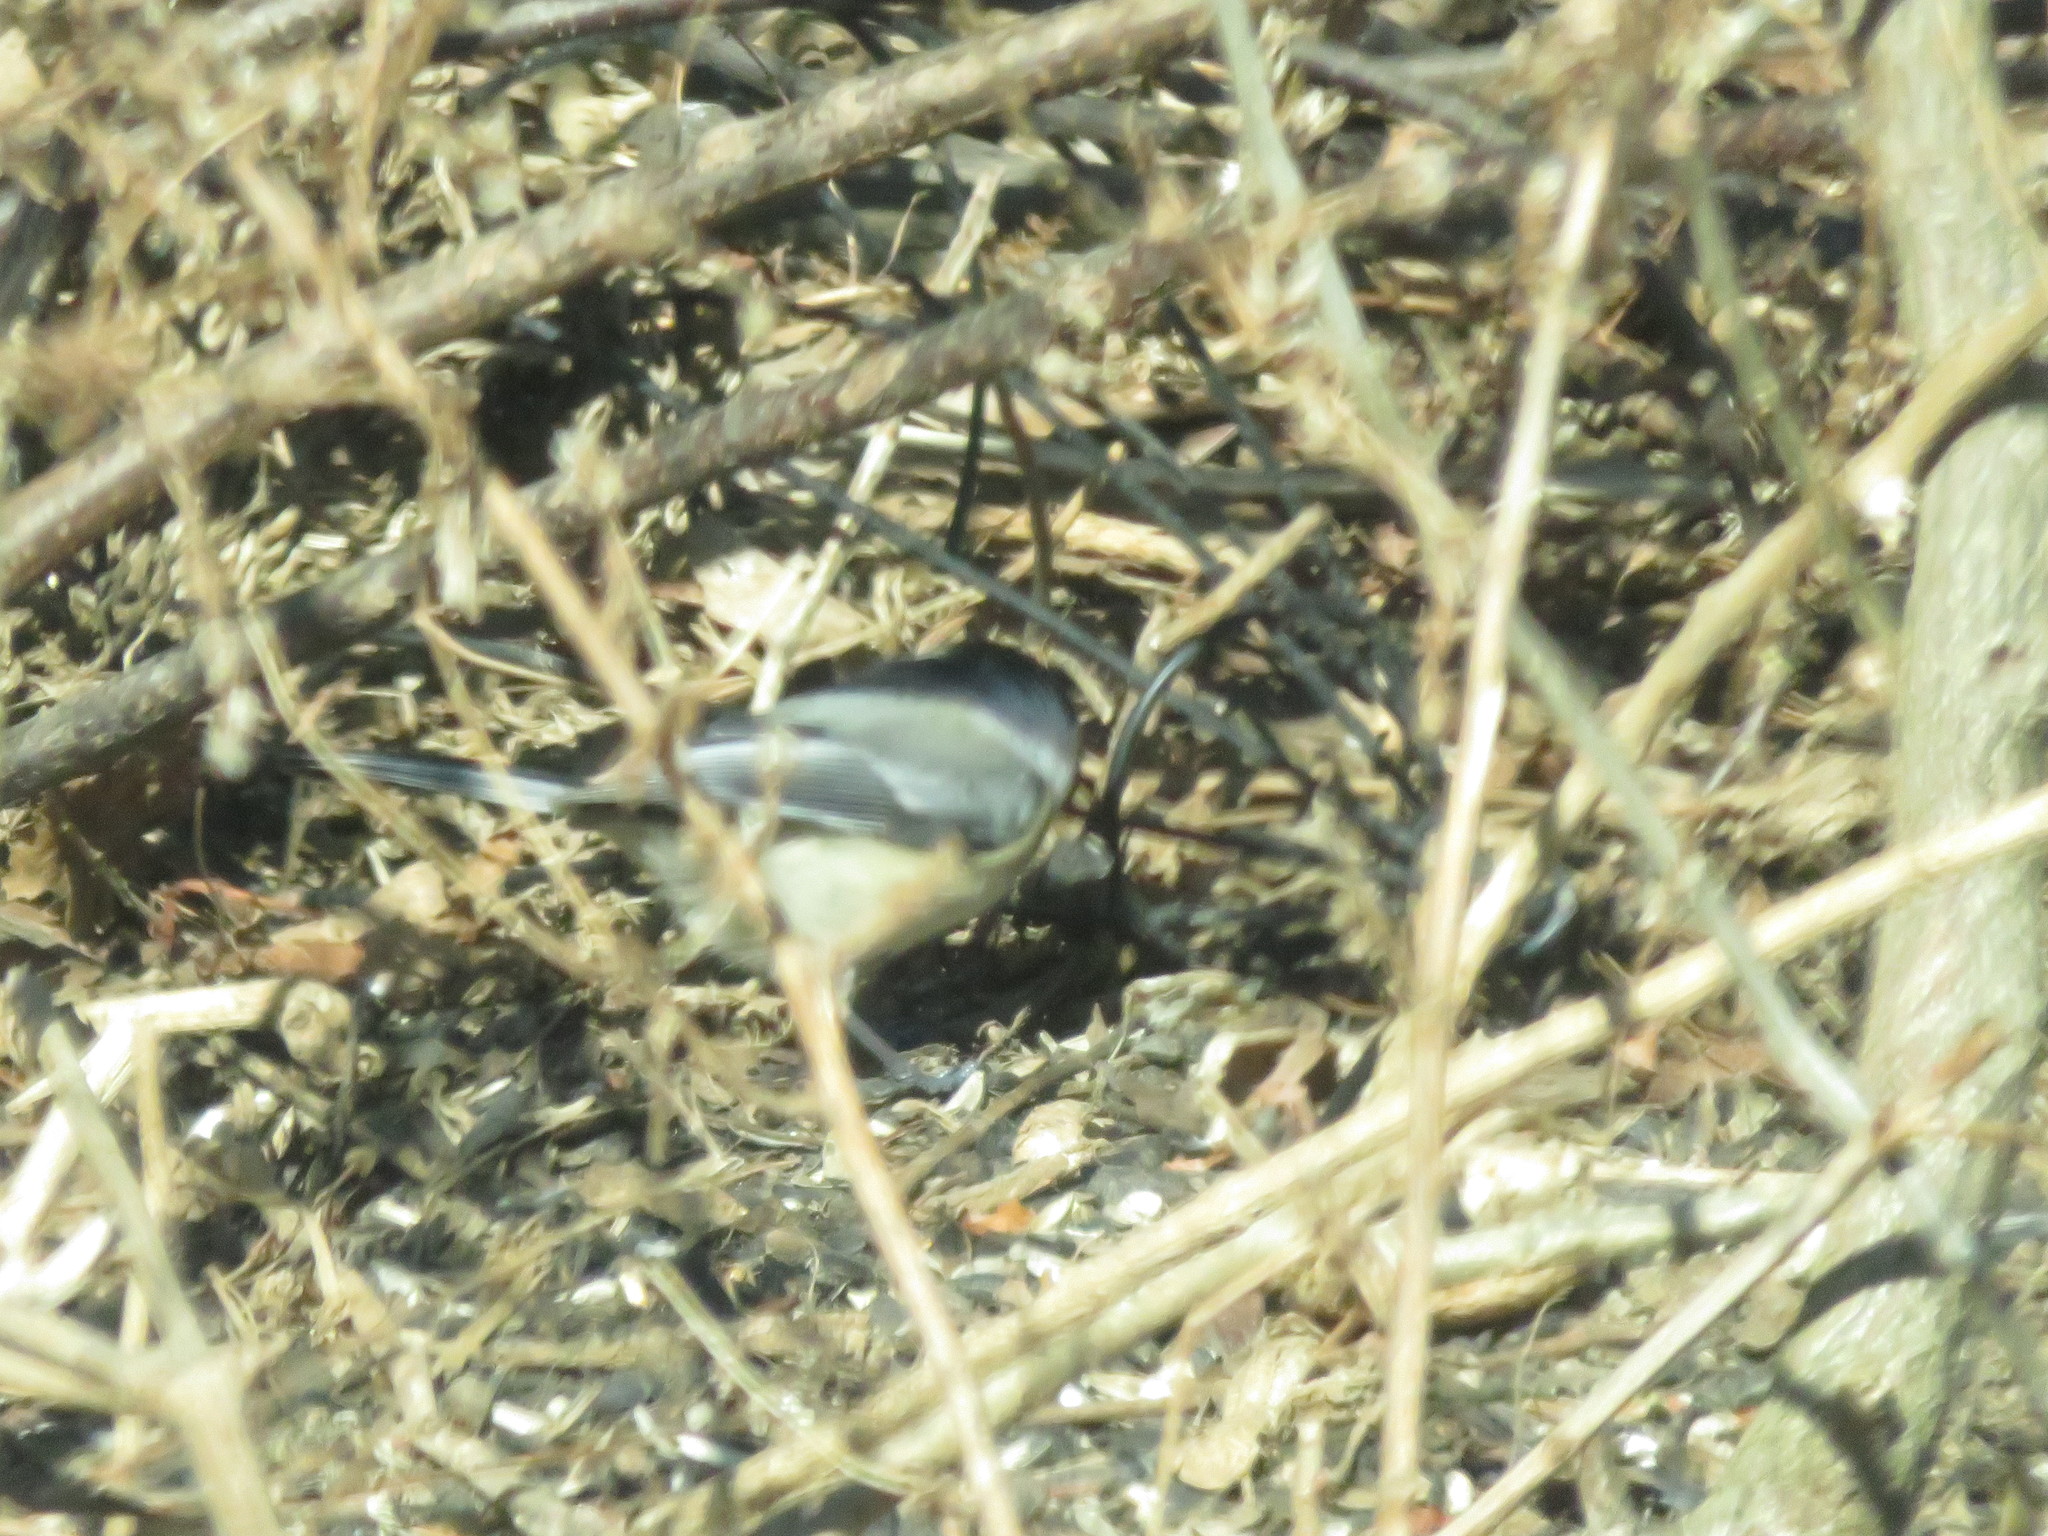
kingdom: Animalia
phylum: Chordata
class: Aves
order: Passeriformes
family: Paridae
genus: Poecile
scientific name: Poecile atricapillus
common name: Black-capped chickadee
